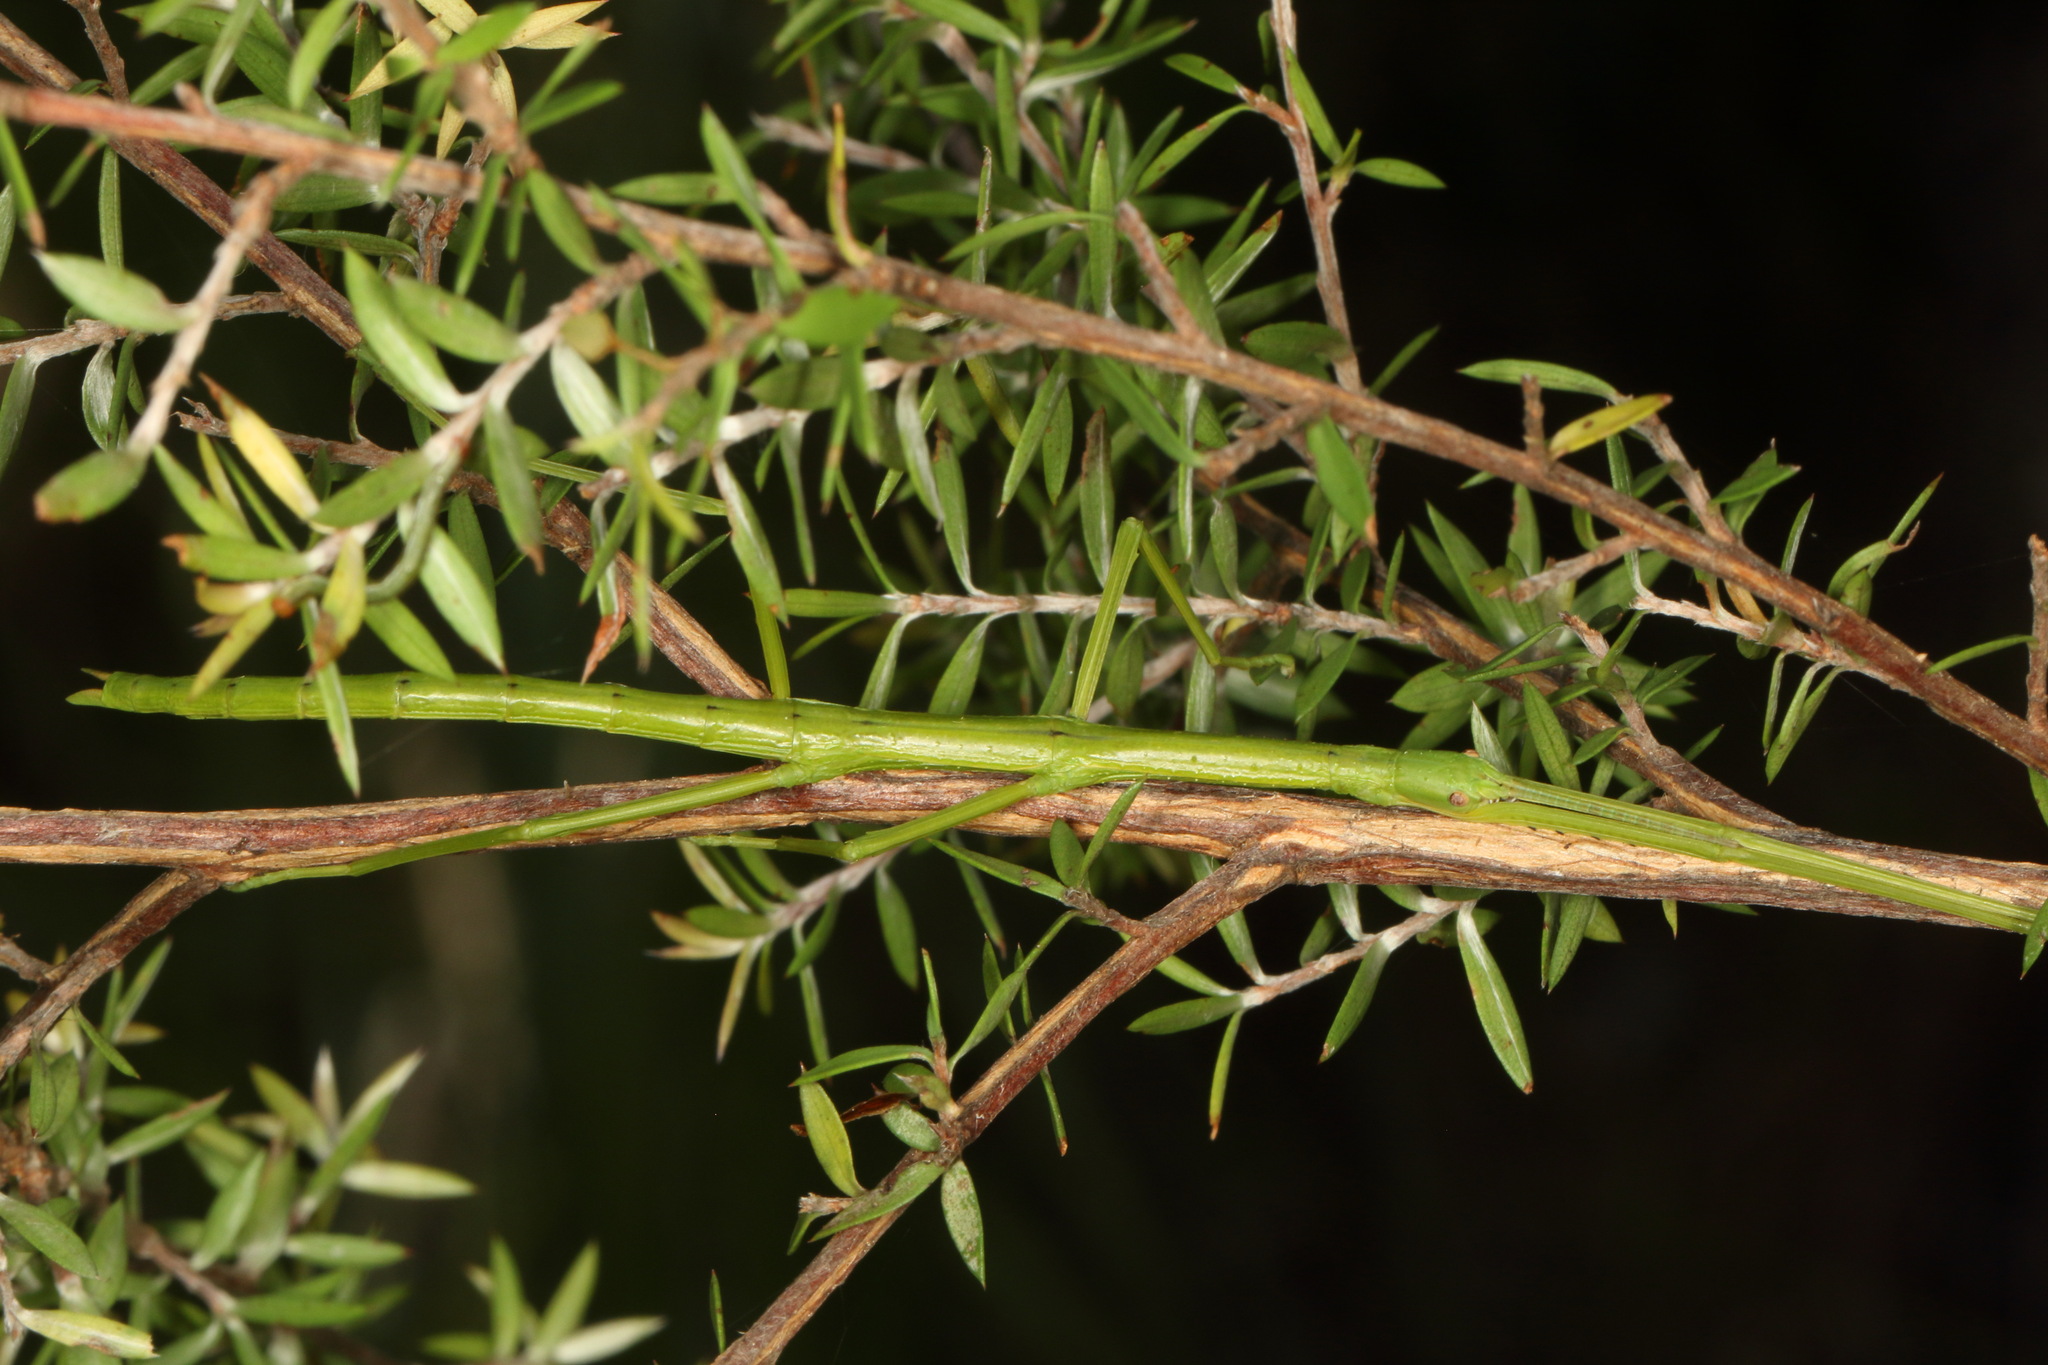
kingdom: Animalia
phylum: Arthropoda
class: Insecta
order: Phasmida
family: Phasmatidae
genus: Clitarchus
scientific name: Clitarchus hookeri
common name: Smooth stick insect
